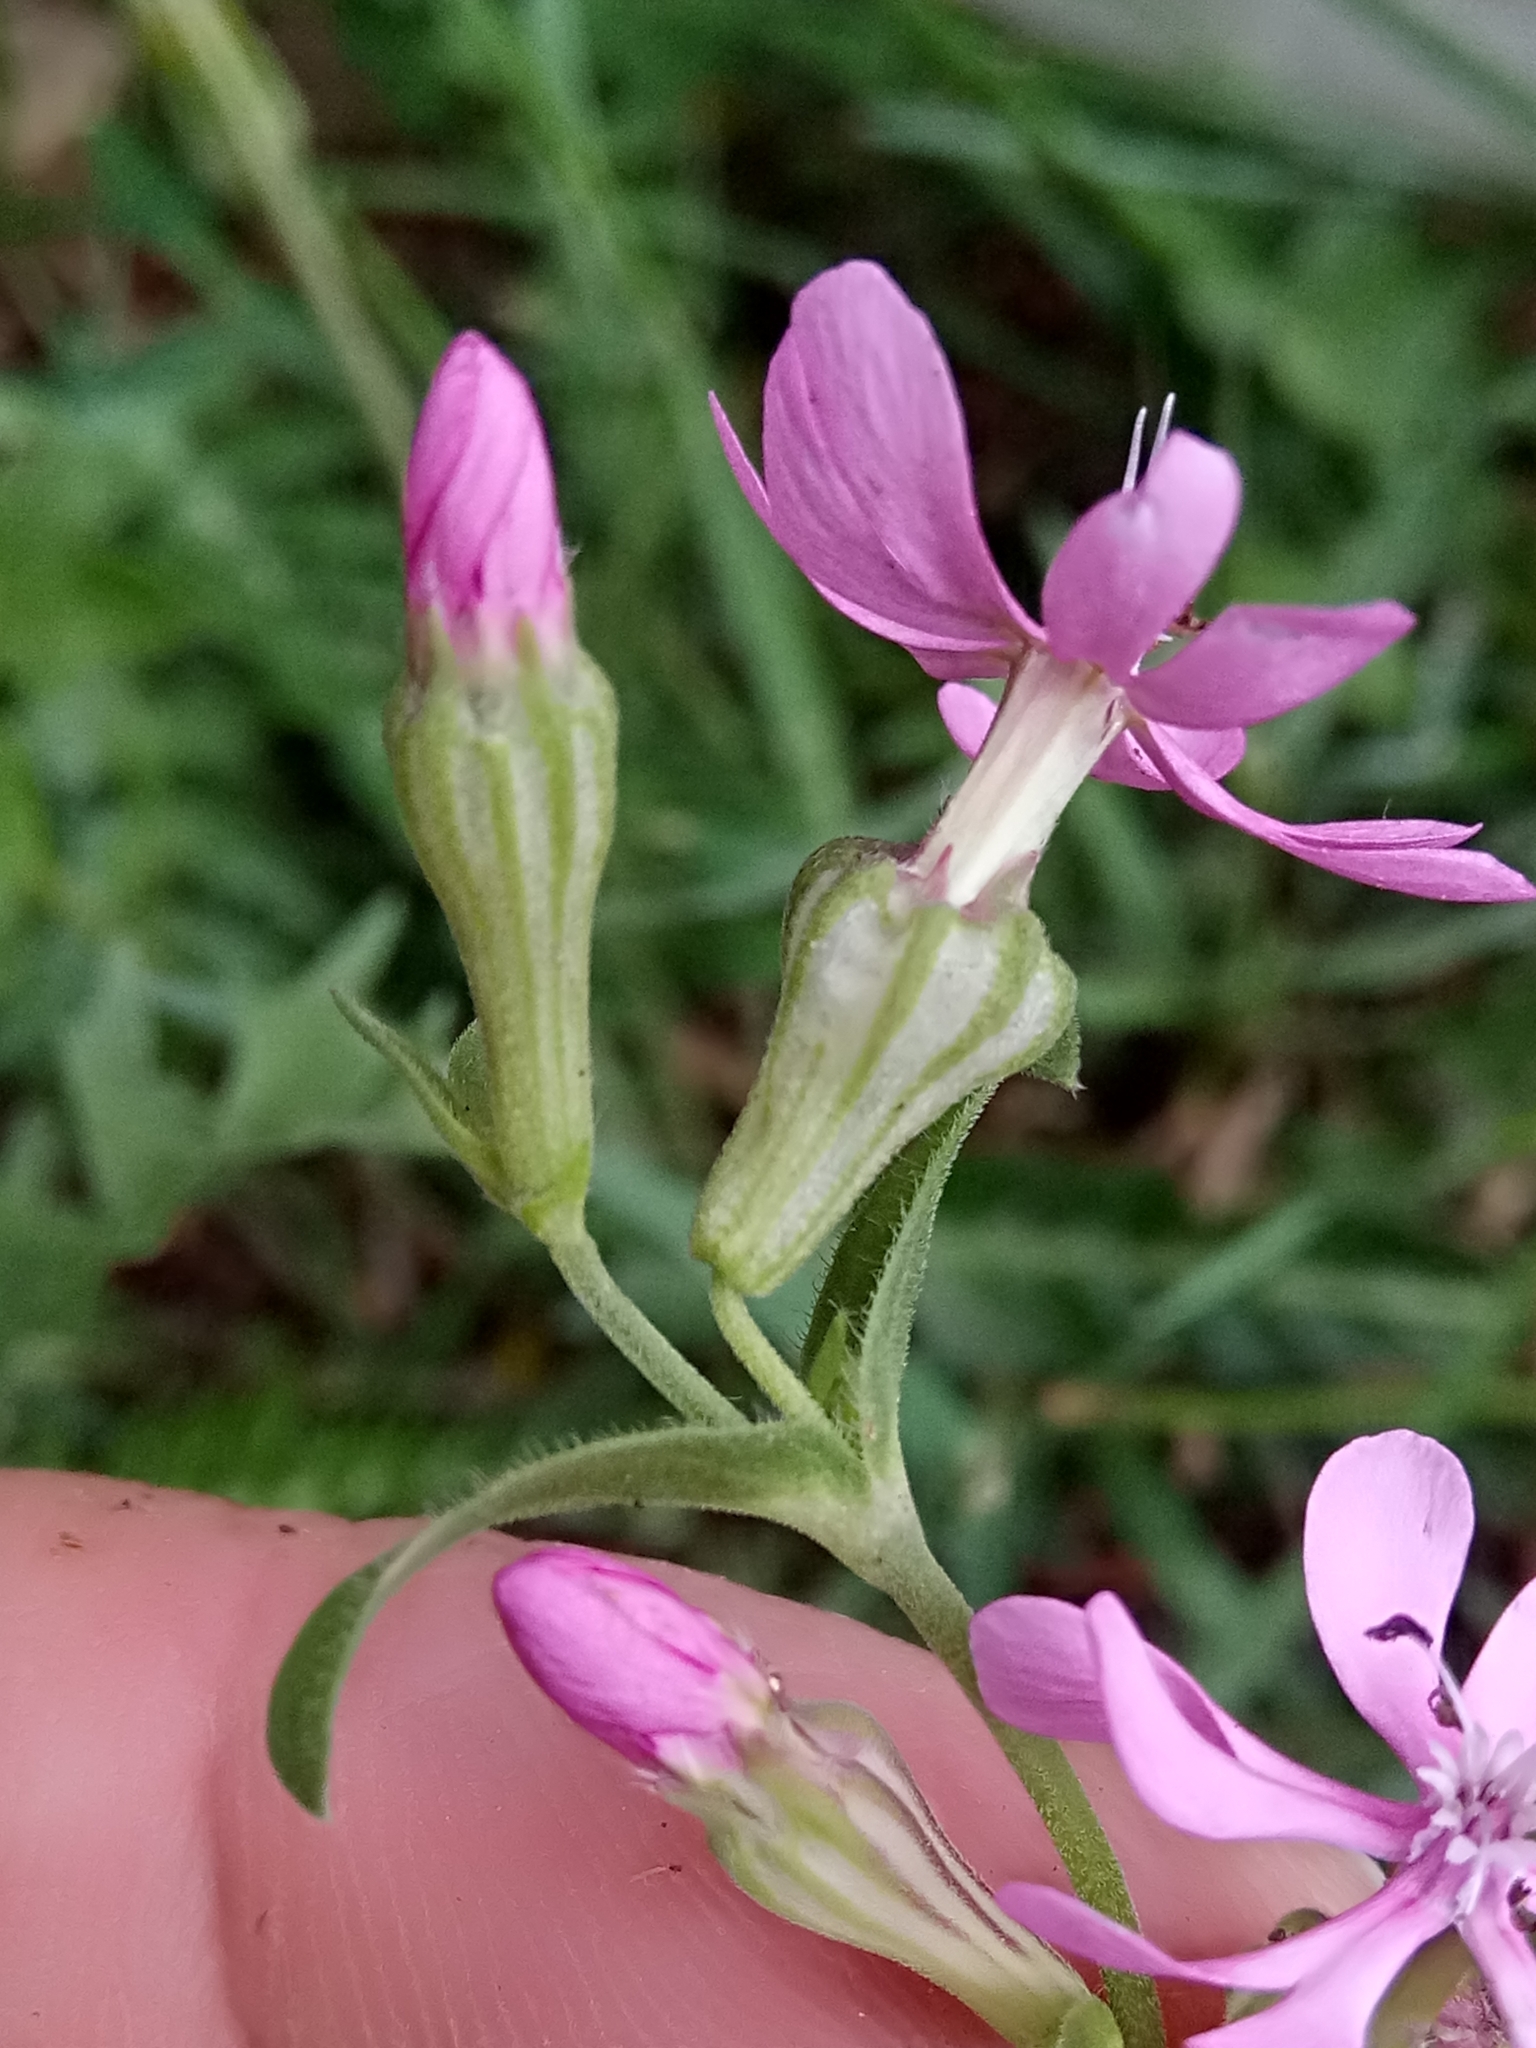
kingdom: Plantae
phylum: Tracheophyta
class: Magnoliopsida
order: Caryophyllales
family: Caryophyllaceae
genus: Silene
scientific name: Silene secundiflora
